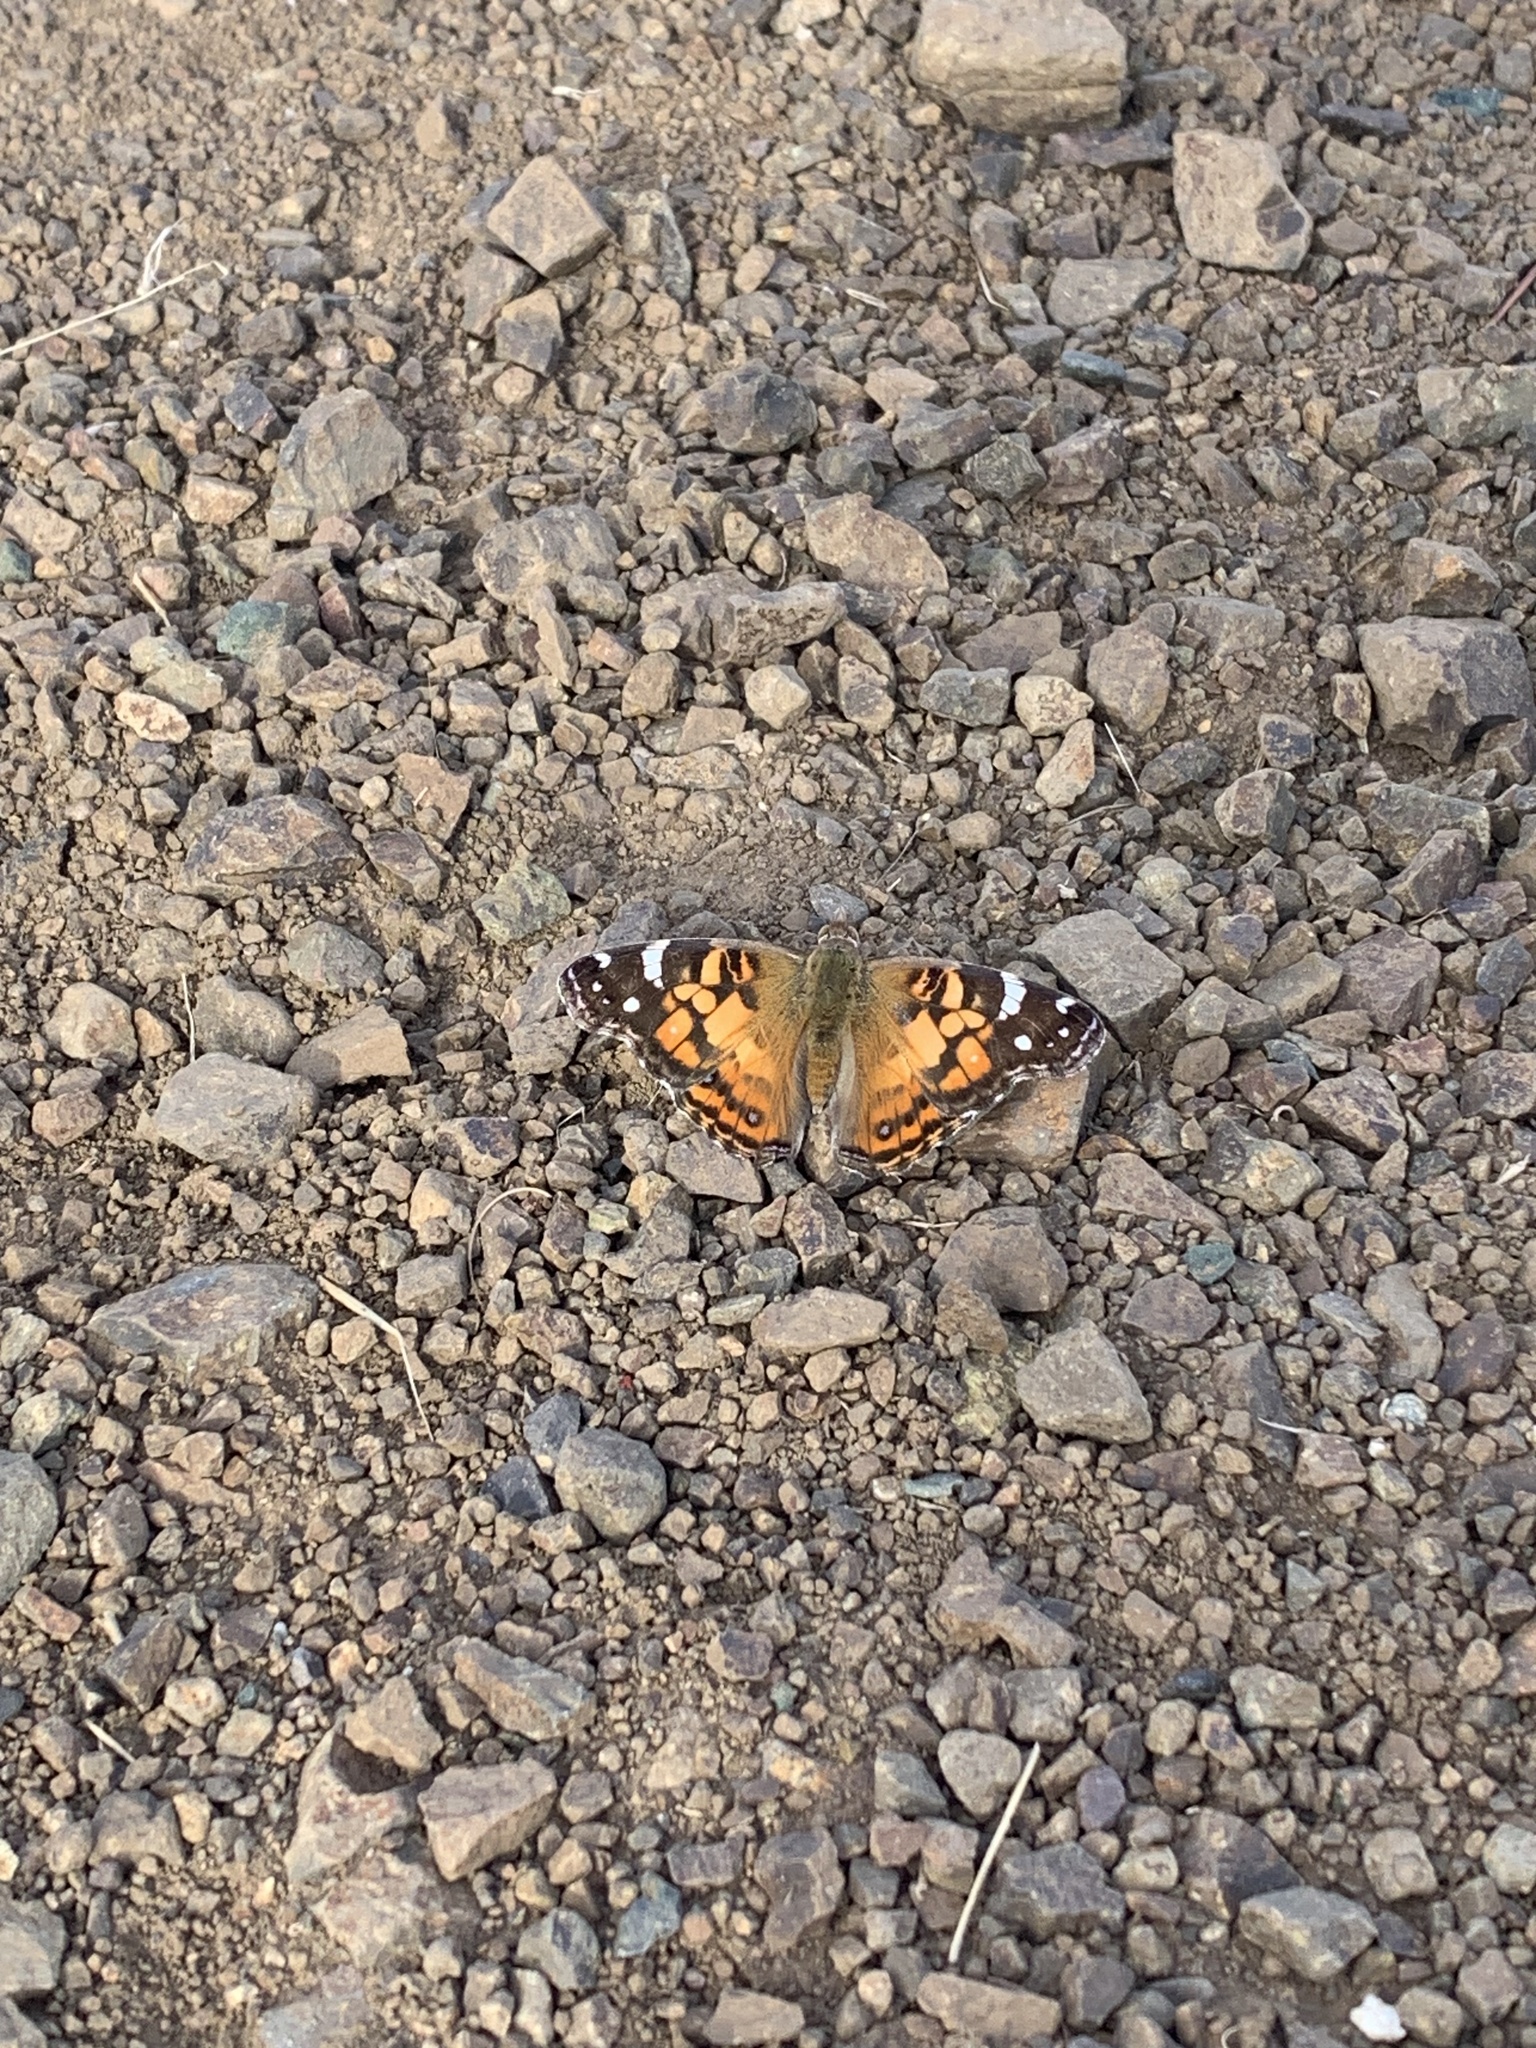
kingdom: Animalia
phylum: Arthropoda
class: Insecta
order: Lepidoptera
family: Nymphalidae
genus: Vanessa
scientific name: Vanessa virginiensis
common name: American lady
